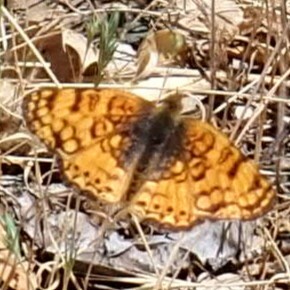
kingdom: Animalia
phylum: Arthropoda
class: Insecta
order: Lepidoptera
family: Nymphalidae
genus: Eresia
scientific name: Eresia aveyrona
